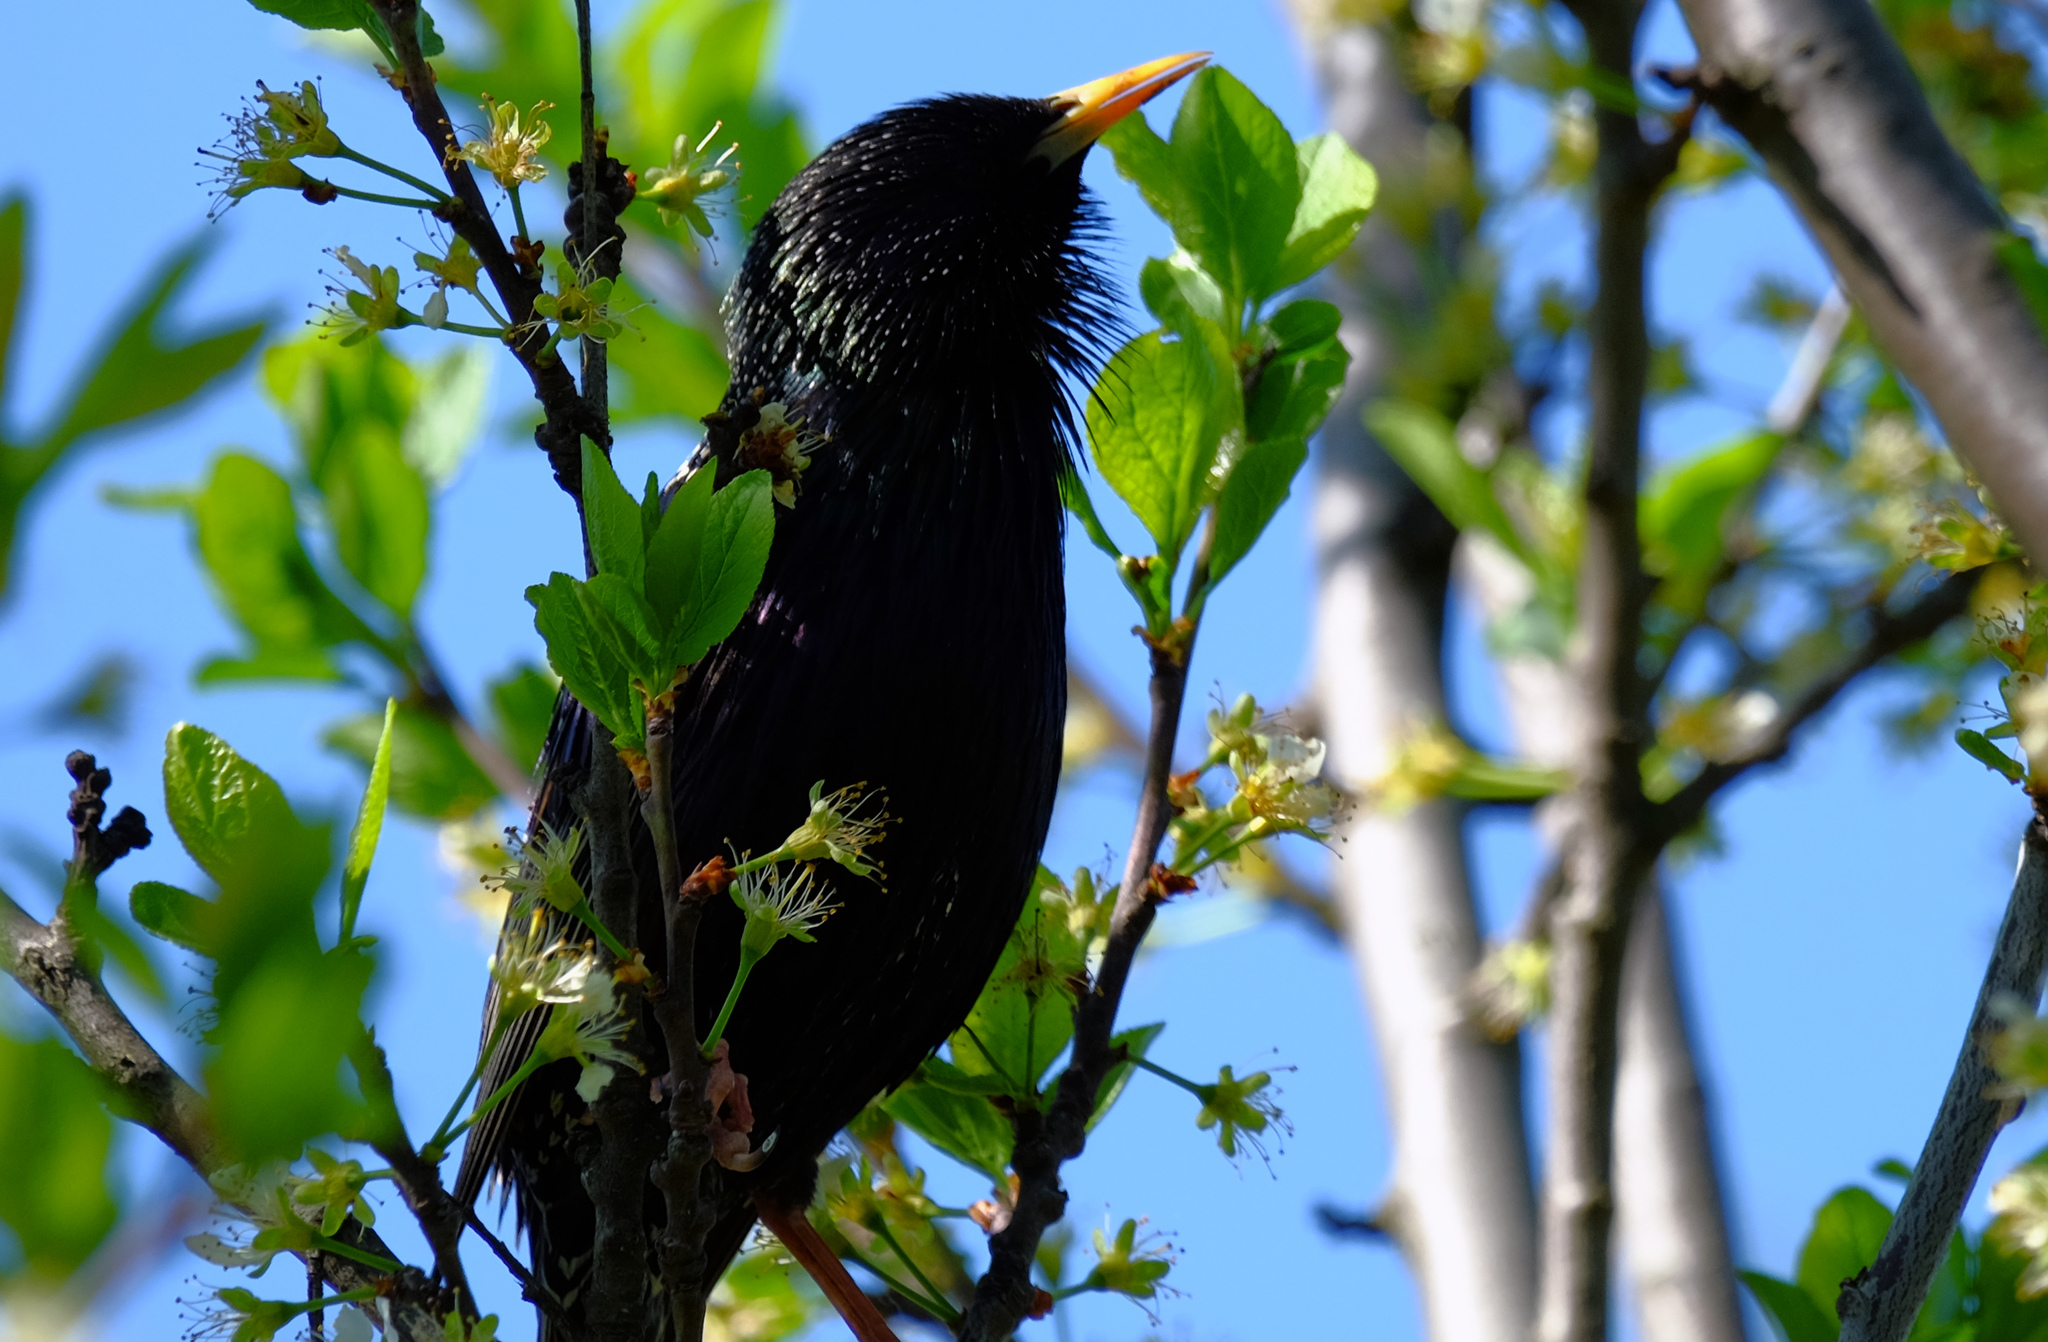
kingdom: Animalia
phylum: Chordata
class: Aves
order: Passeriformes
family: Sturnidae
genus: Sturnus
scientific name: Sturnus vulgaris
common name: Common starling
